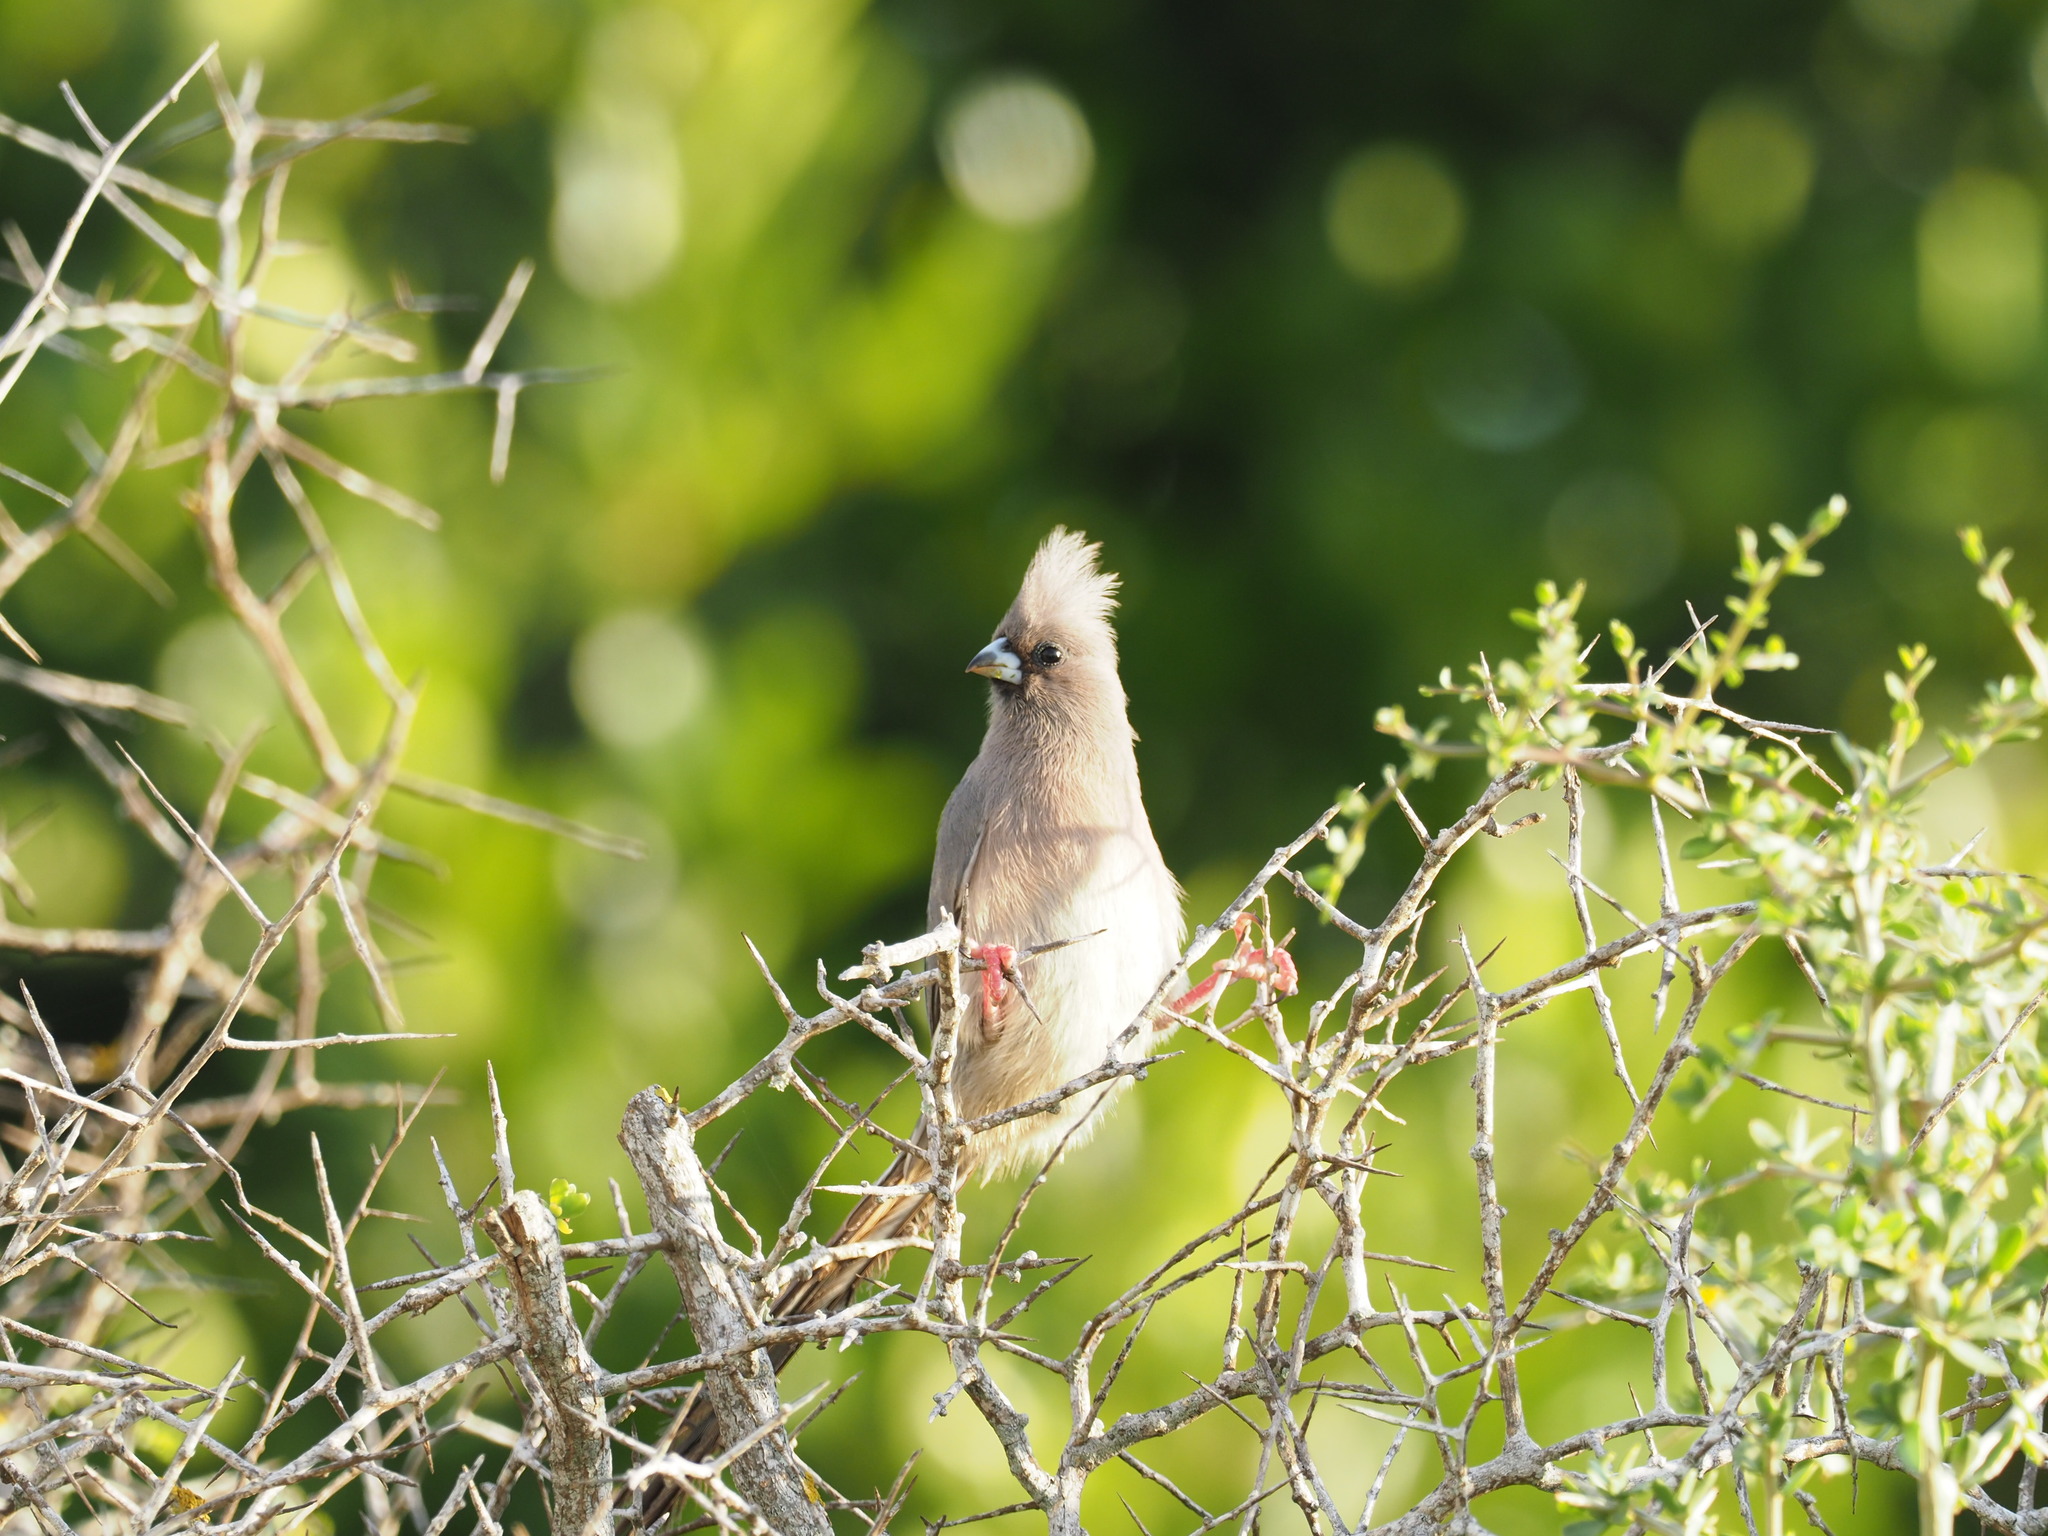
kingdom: Animalia
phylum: Chordata
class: Aves
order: Coliiformes
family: Coliidae
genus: Colius
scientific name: Colius colius
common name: White-backed mousebird
